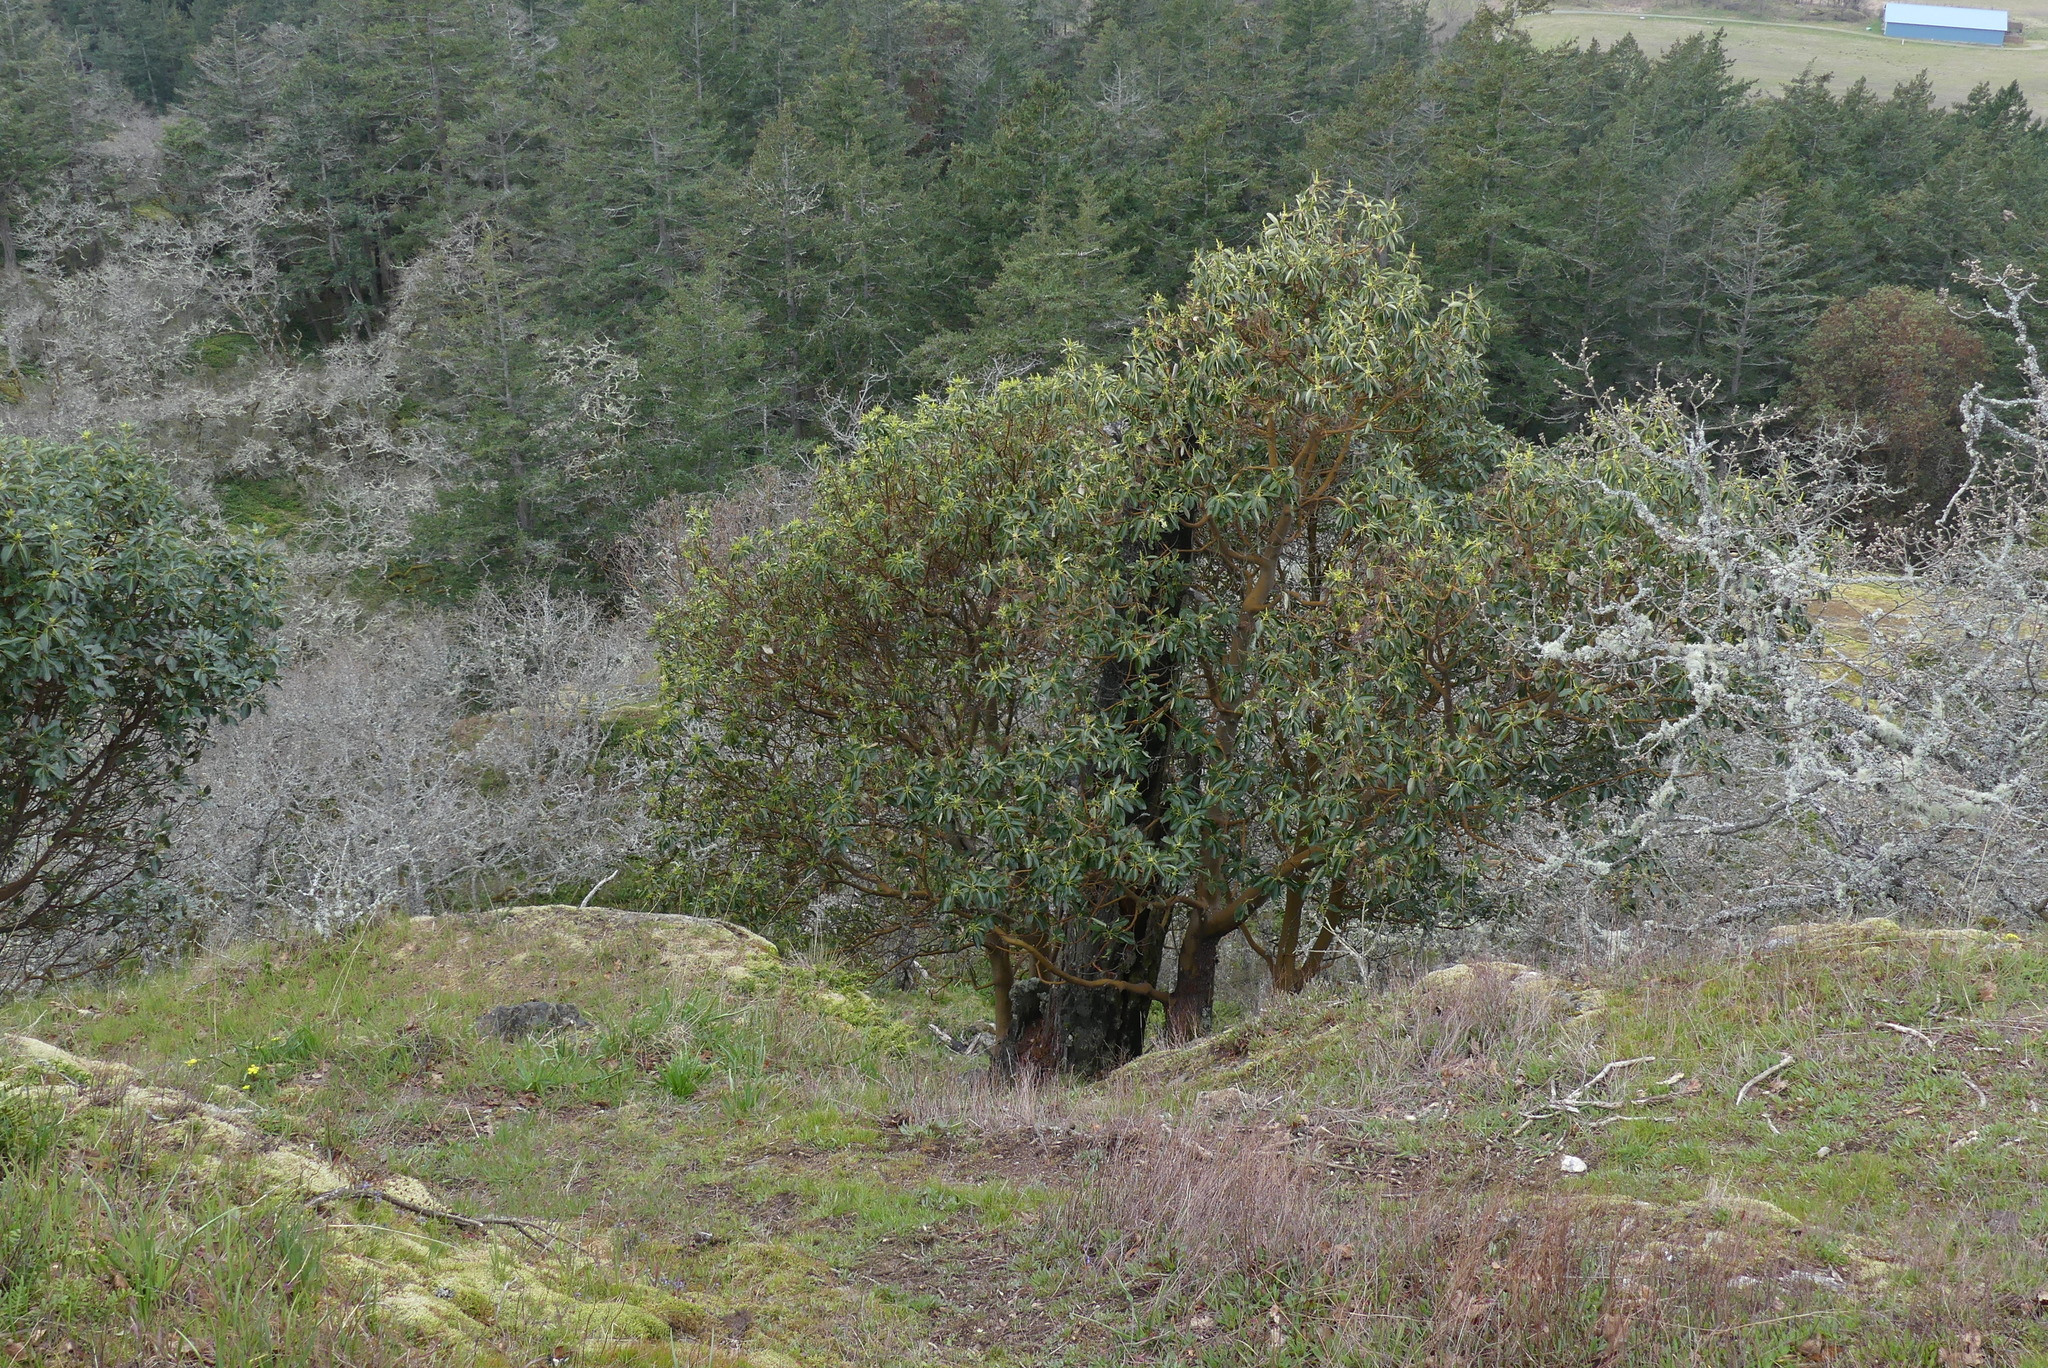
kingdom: Plantae
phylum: Tracheophyta
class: Magnoliopsida
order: Ericales
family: Ericaceae
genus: Arbutus
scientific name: Arbutus menziesii
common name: Pacific madrone
